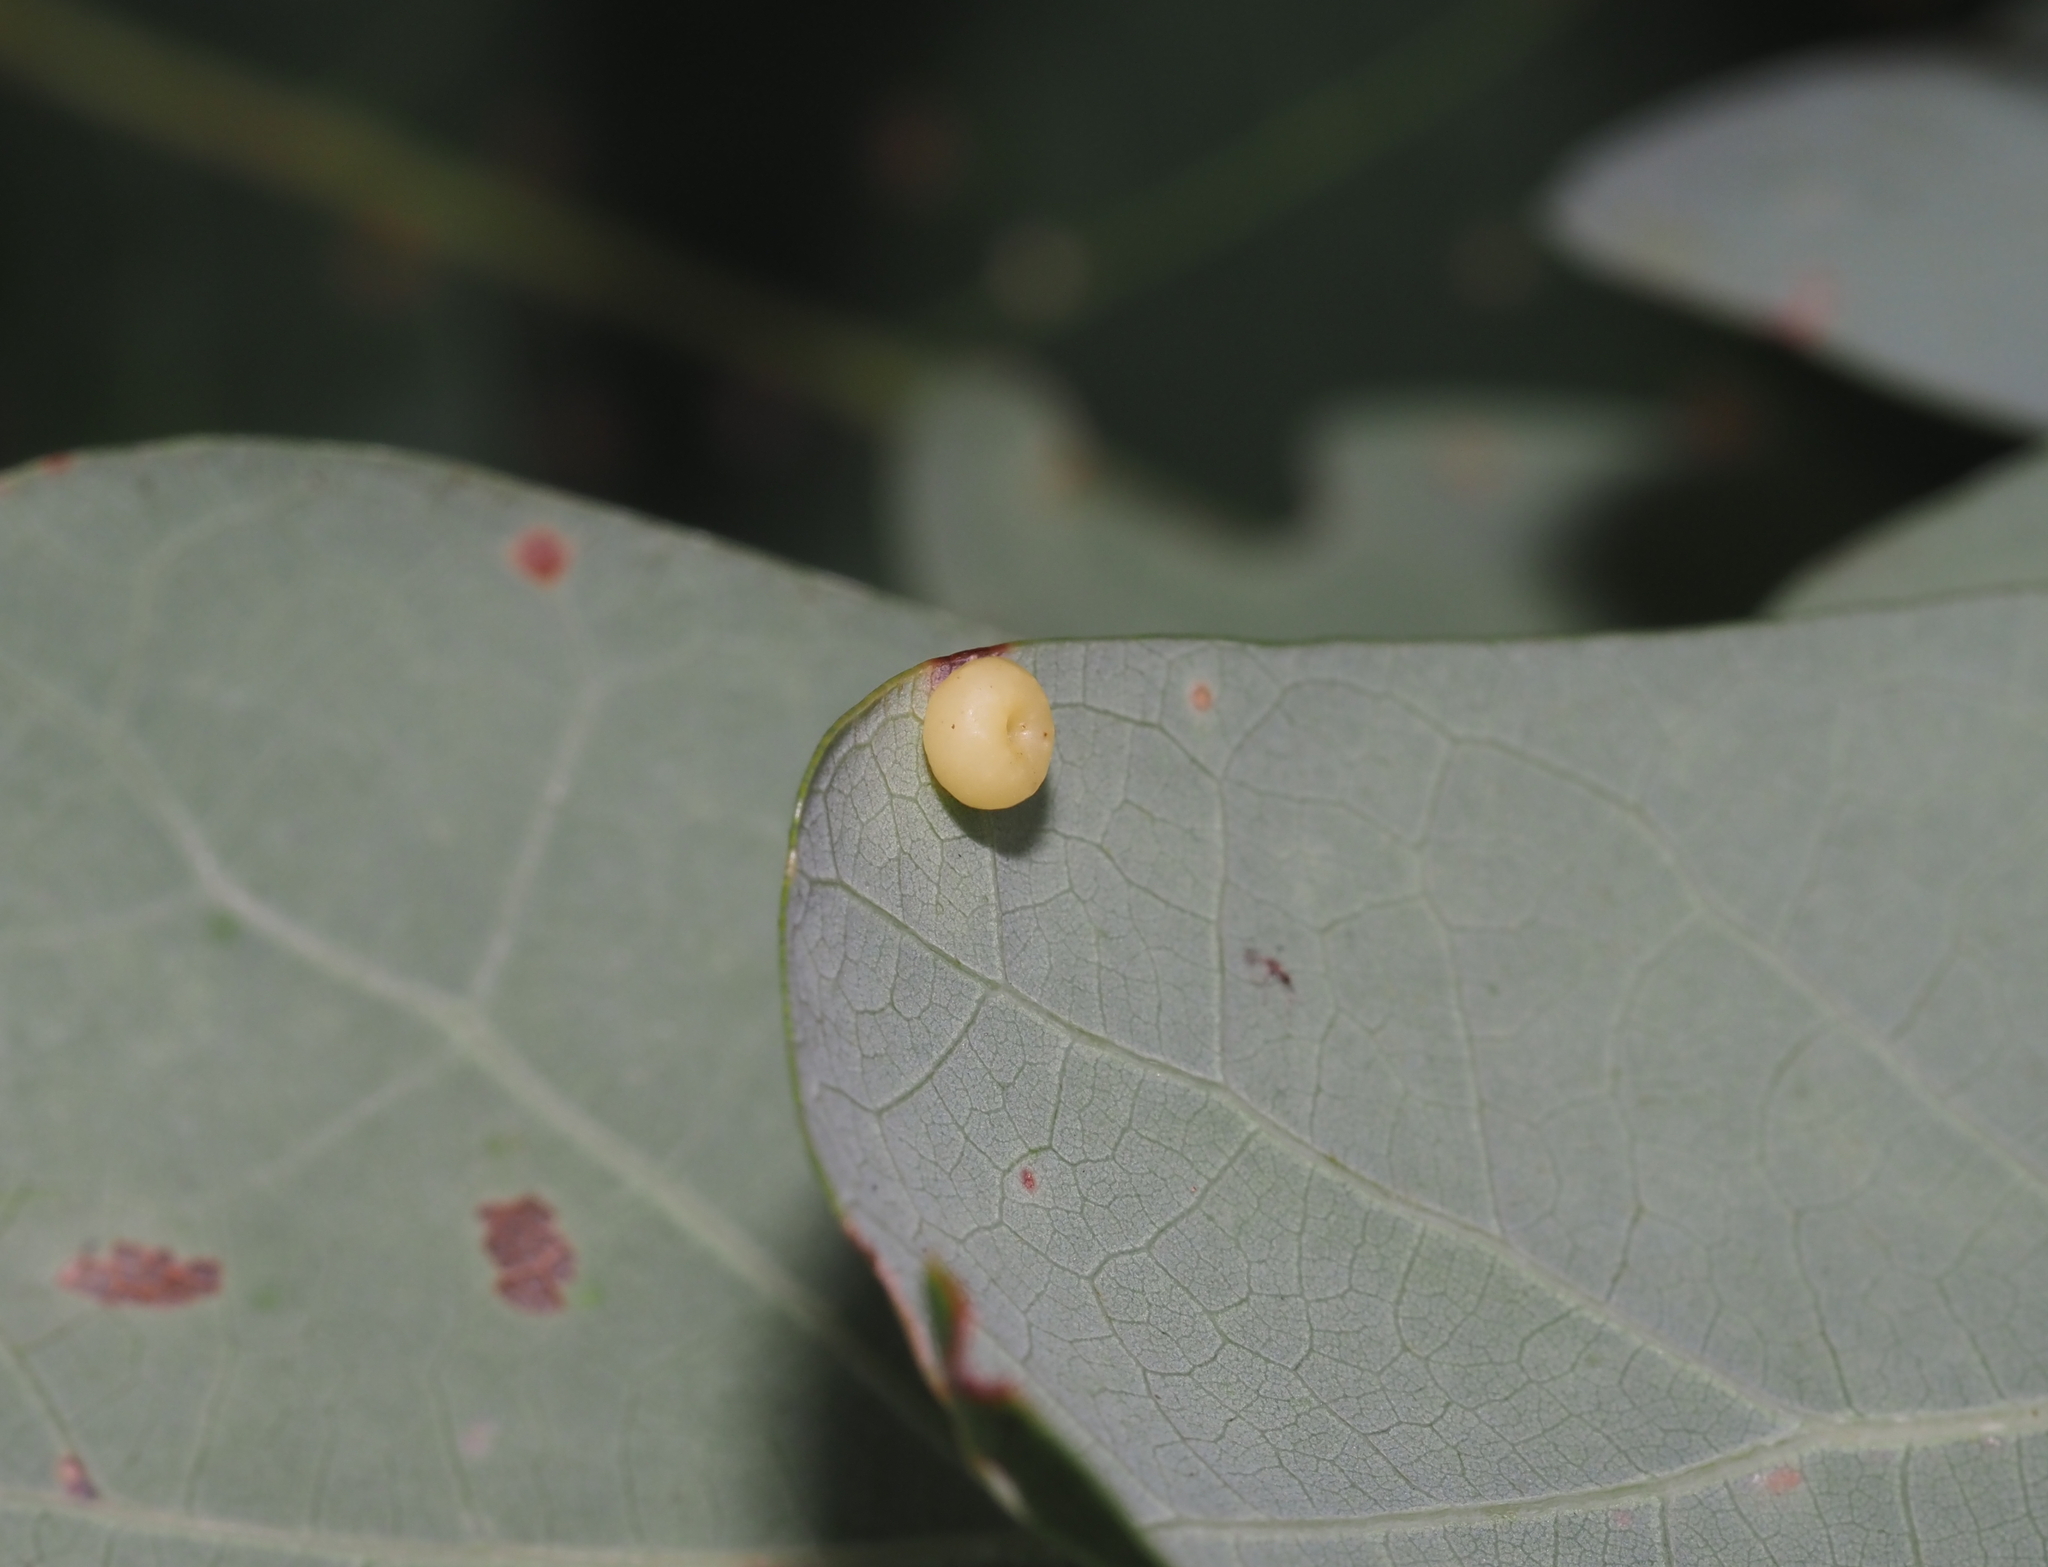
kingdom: Animalia
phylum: Arthropoda
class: Insecta
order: Hymenoptera
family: Cynipidae
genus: Andricus
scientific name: Andricus
